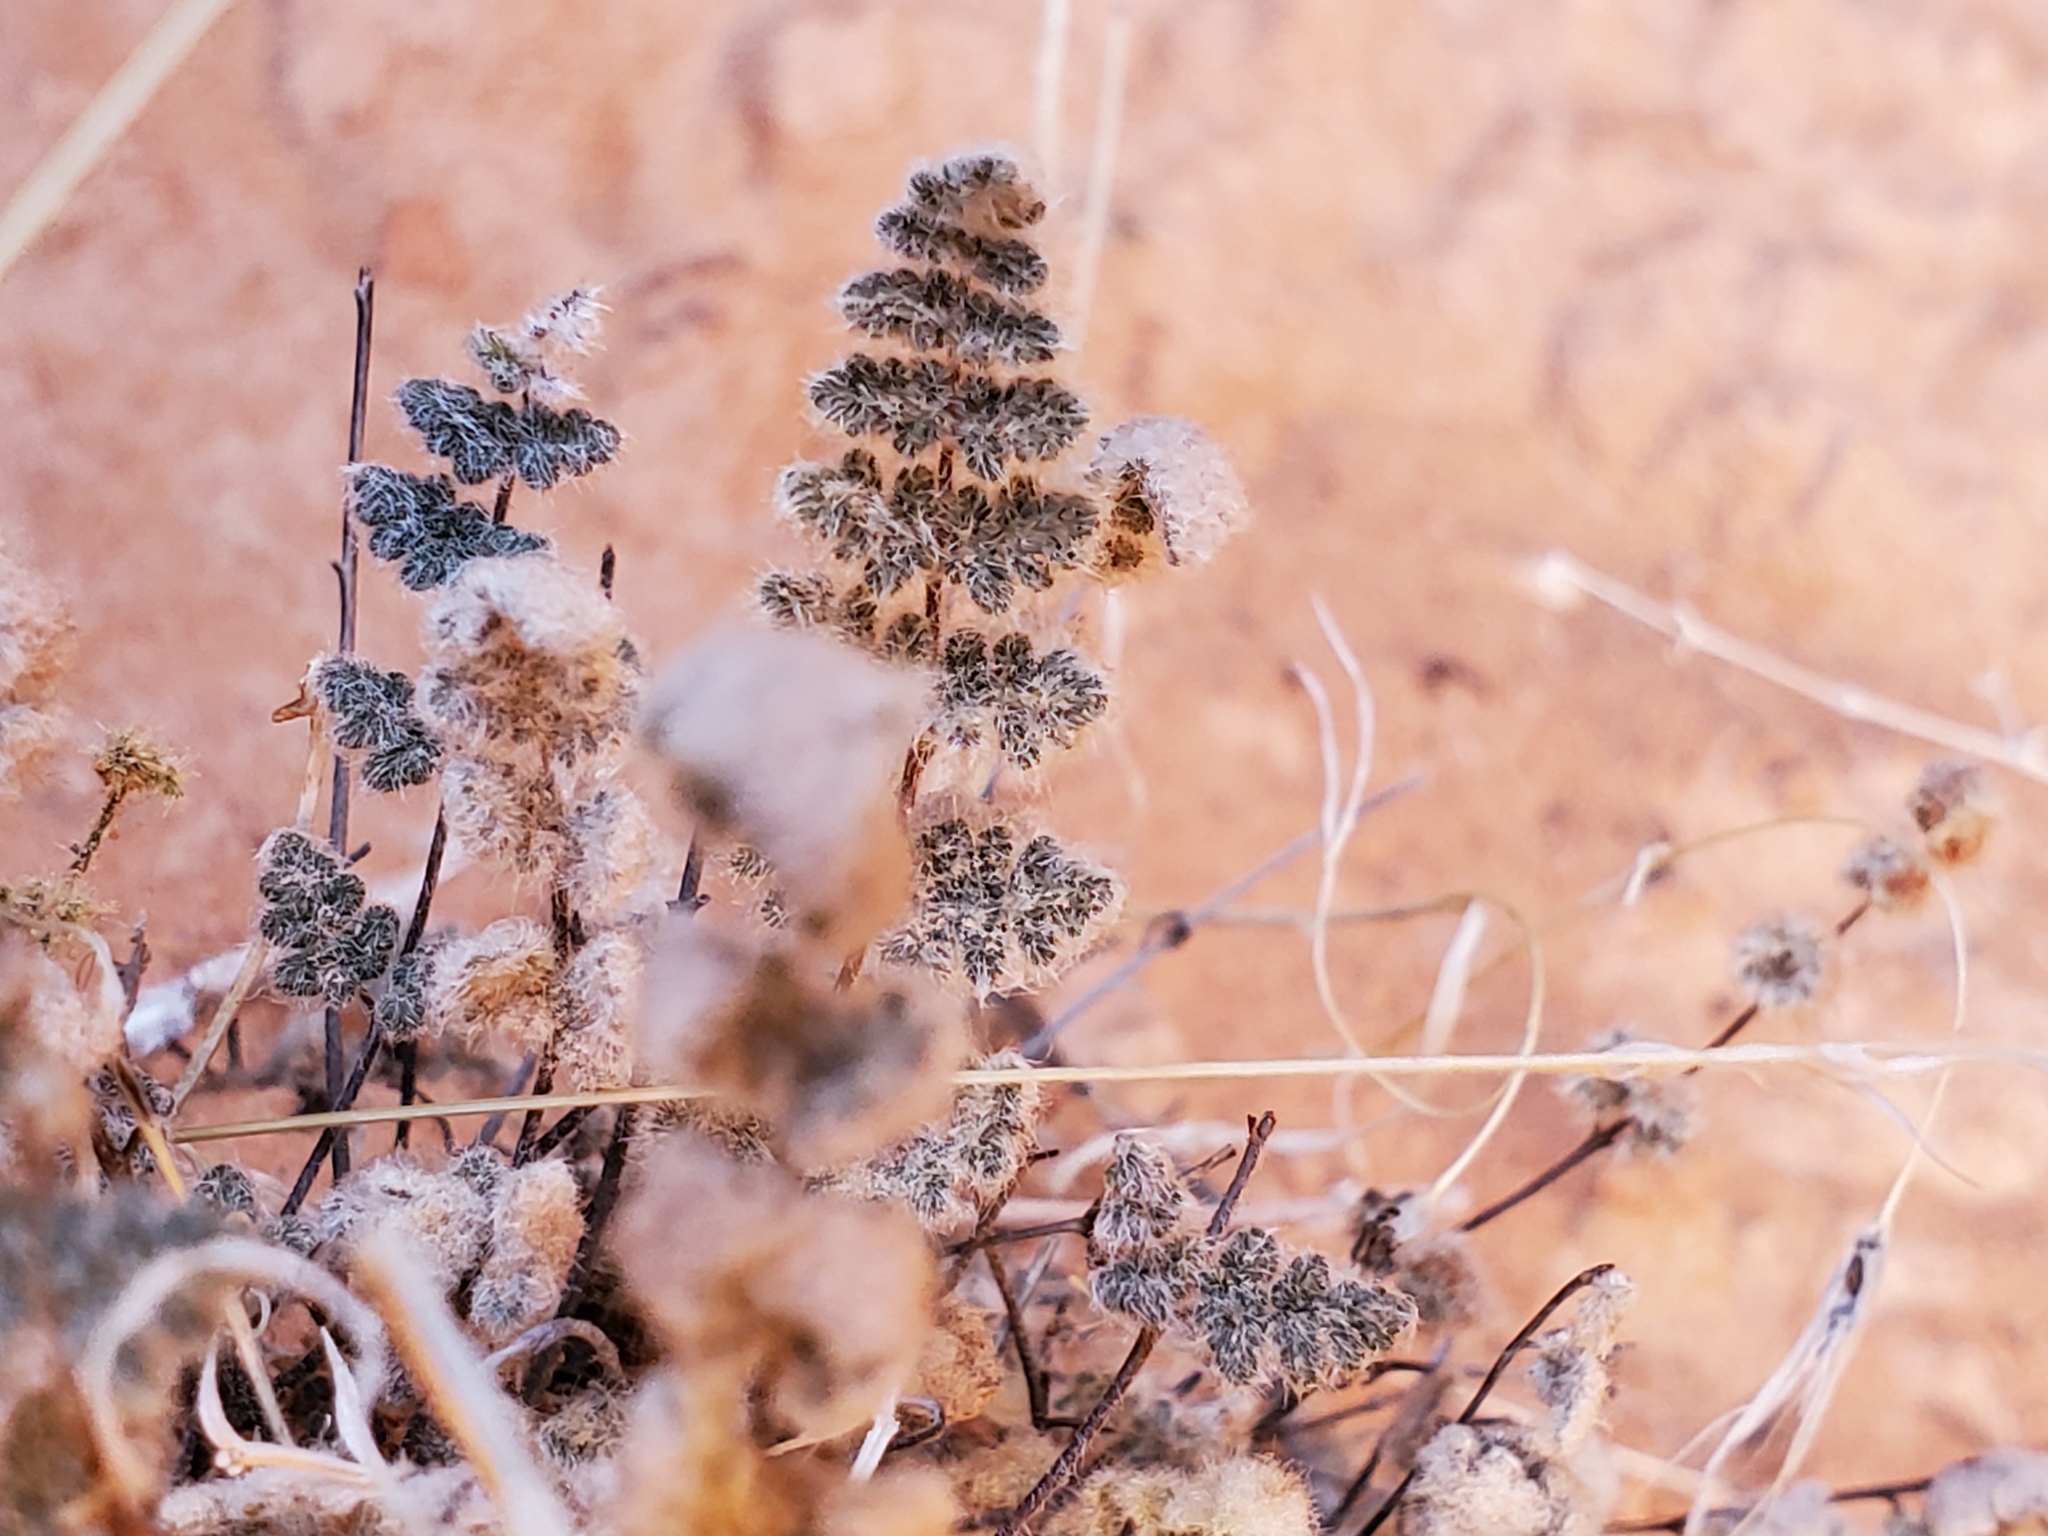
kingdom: Plantae
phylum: Tracheophyta
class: Polypodiopsida
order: Polypodiales
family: Pteridaceae
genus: Myriopteris
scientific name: Myriopteris parryi
